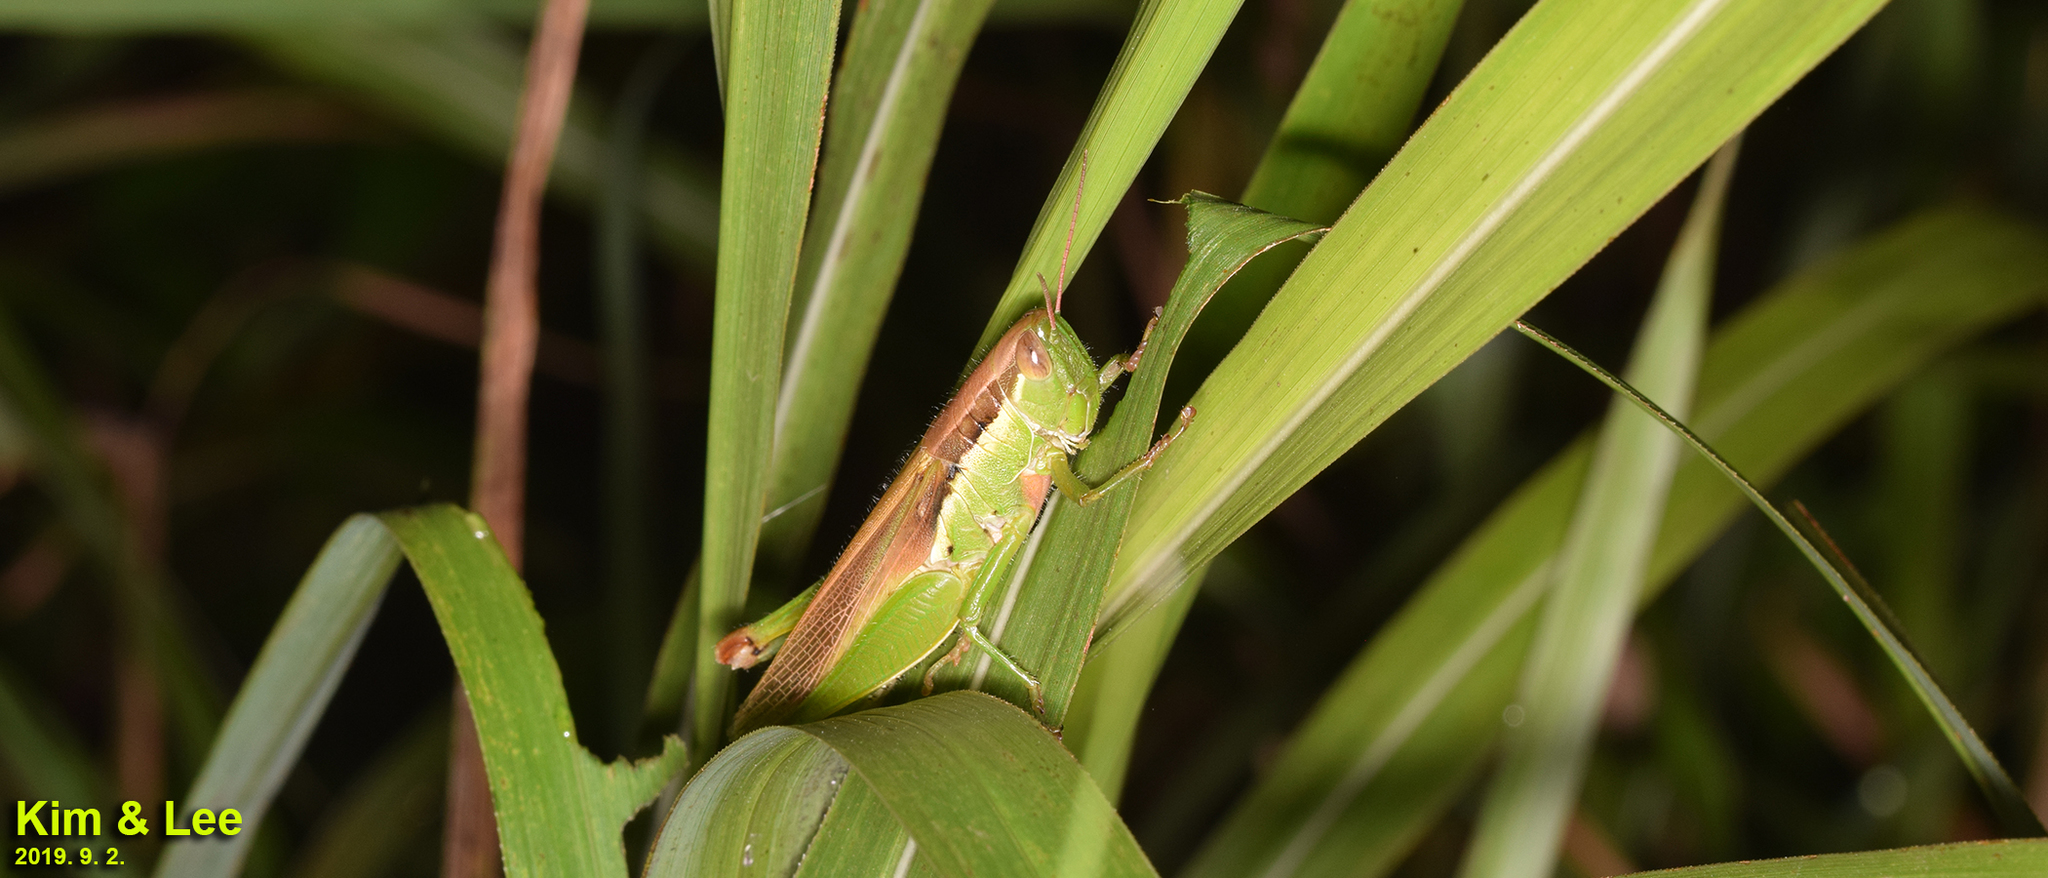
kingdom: Animalia
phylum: Arthropoda
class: Insecta
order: Orthoptera
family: Acrididae
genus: Oxya
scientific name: Oxya sinuosa
